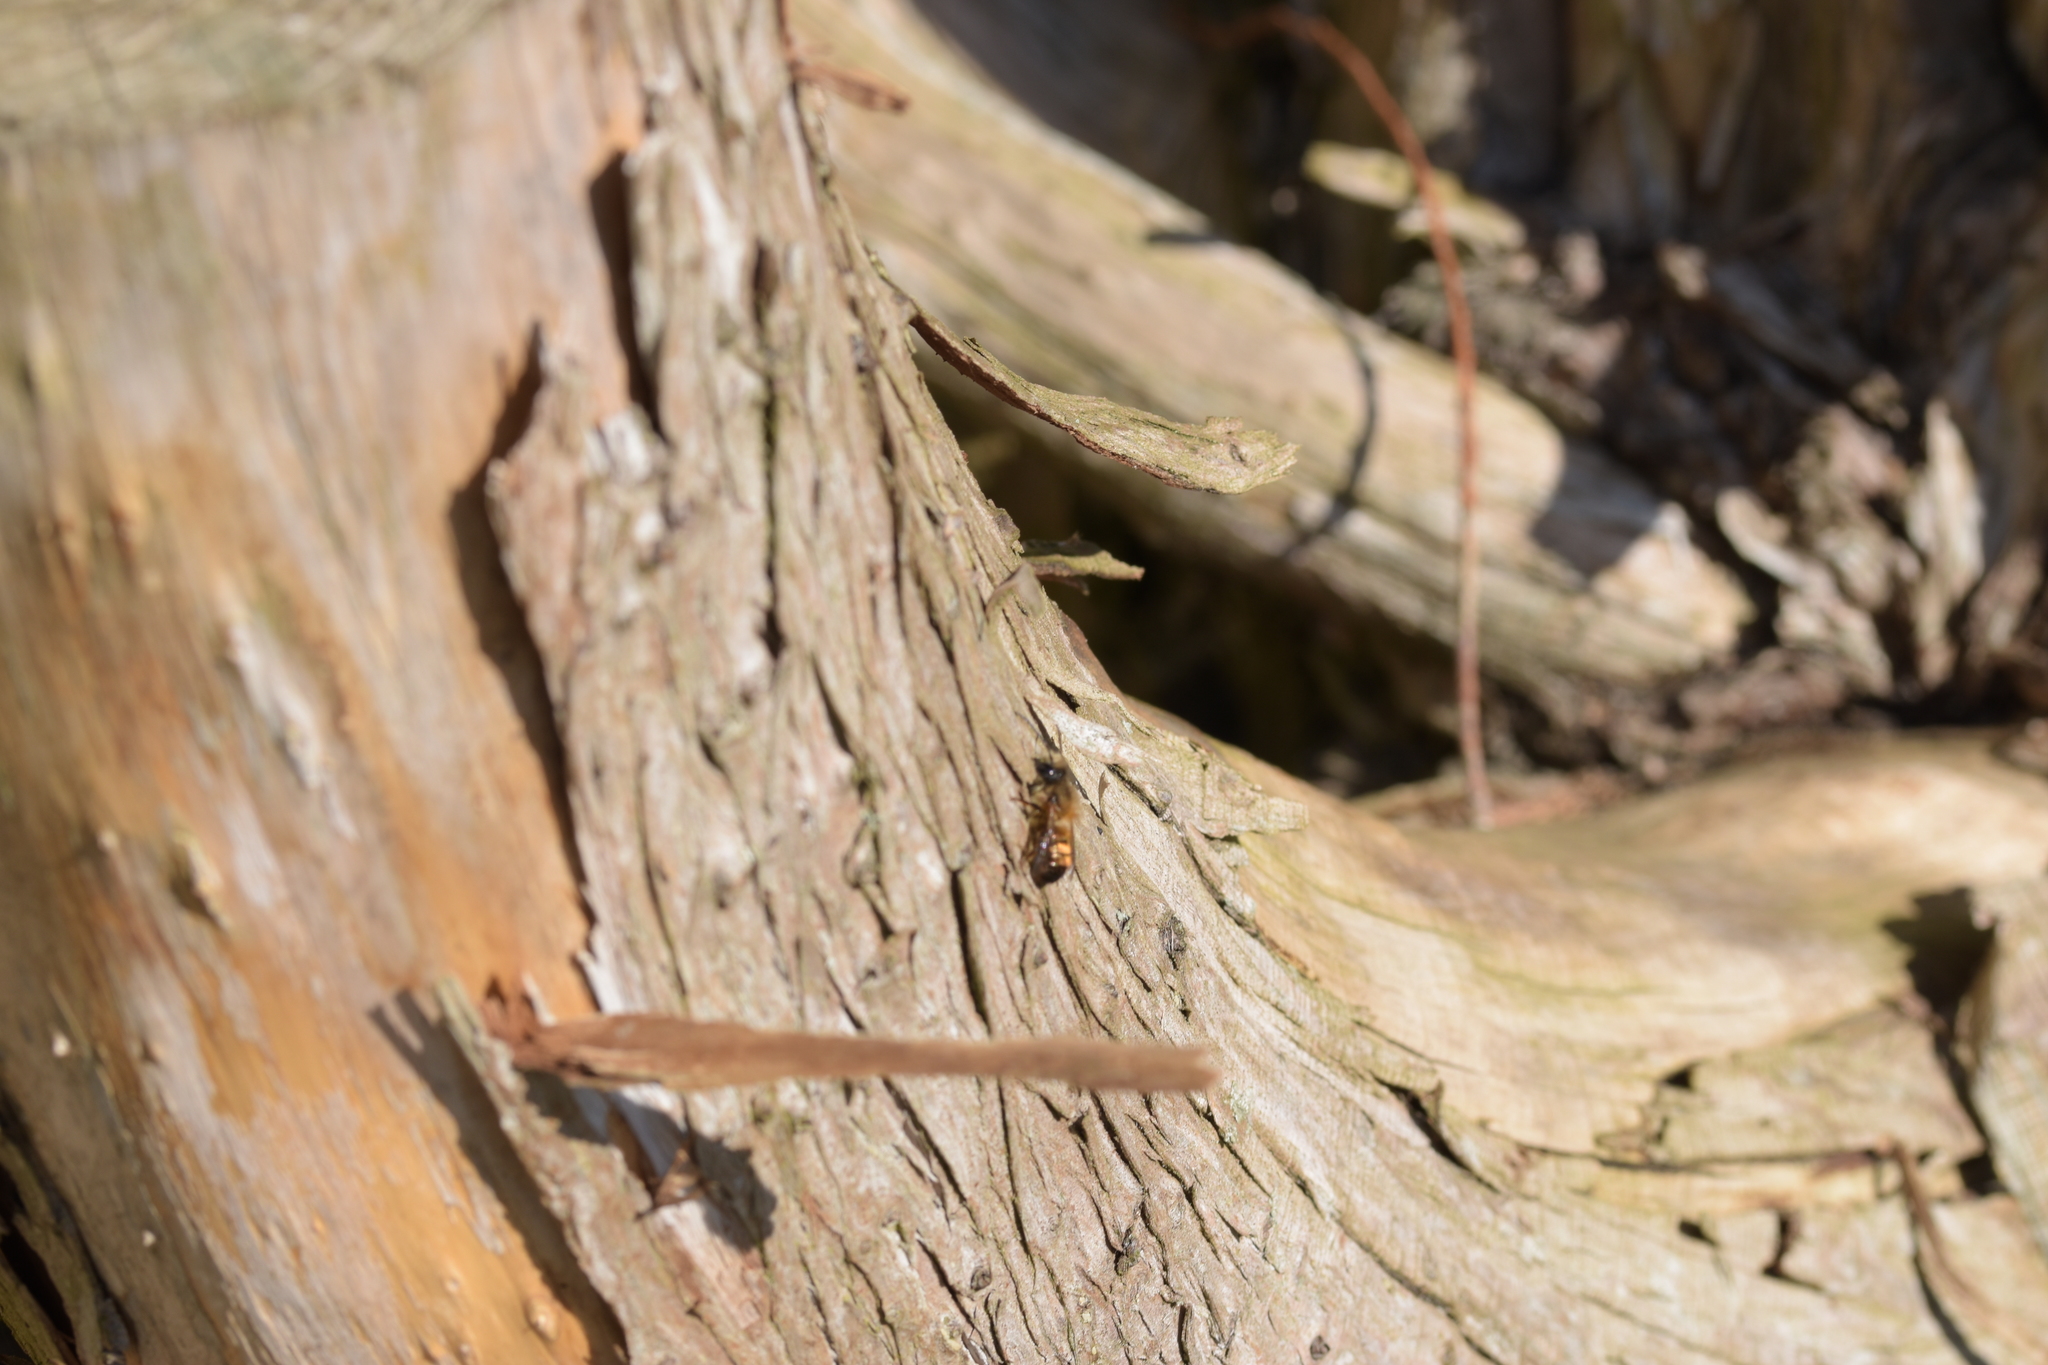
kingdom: Animalia
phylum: Arthropoda
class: Insecta
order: Hymenoptera
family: Megachilidae
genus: Osmia
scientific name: Osmia bicornis
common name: Red mason bee
